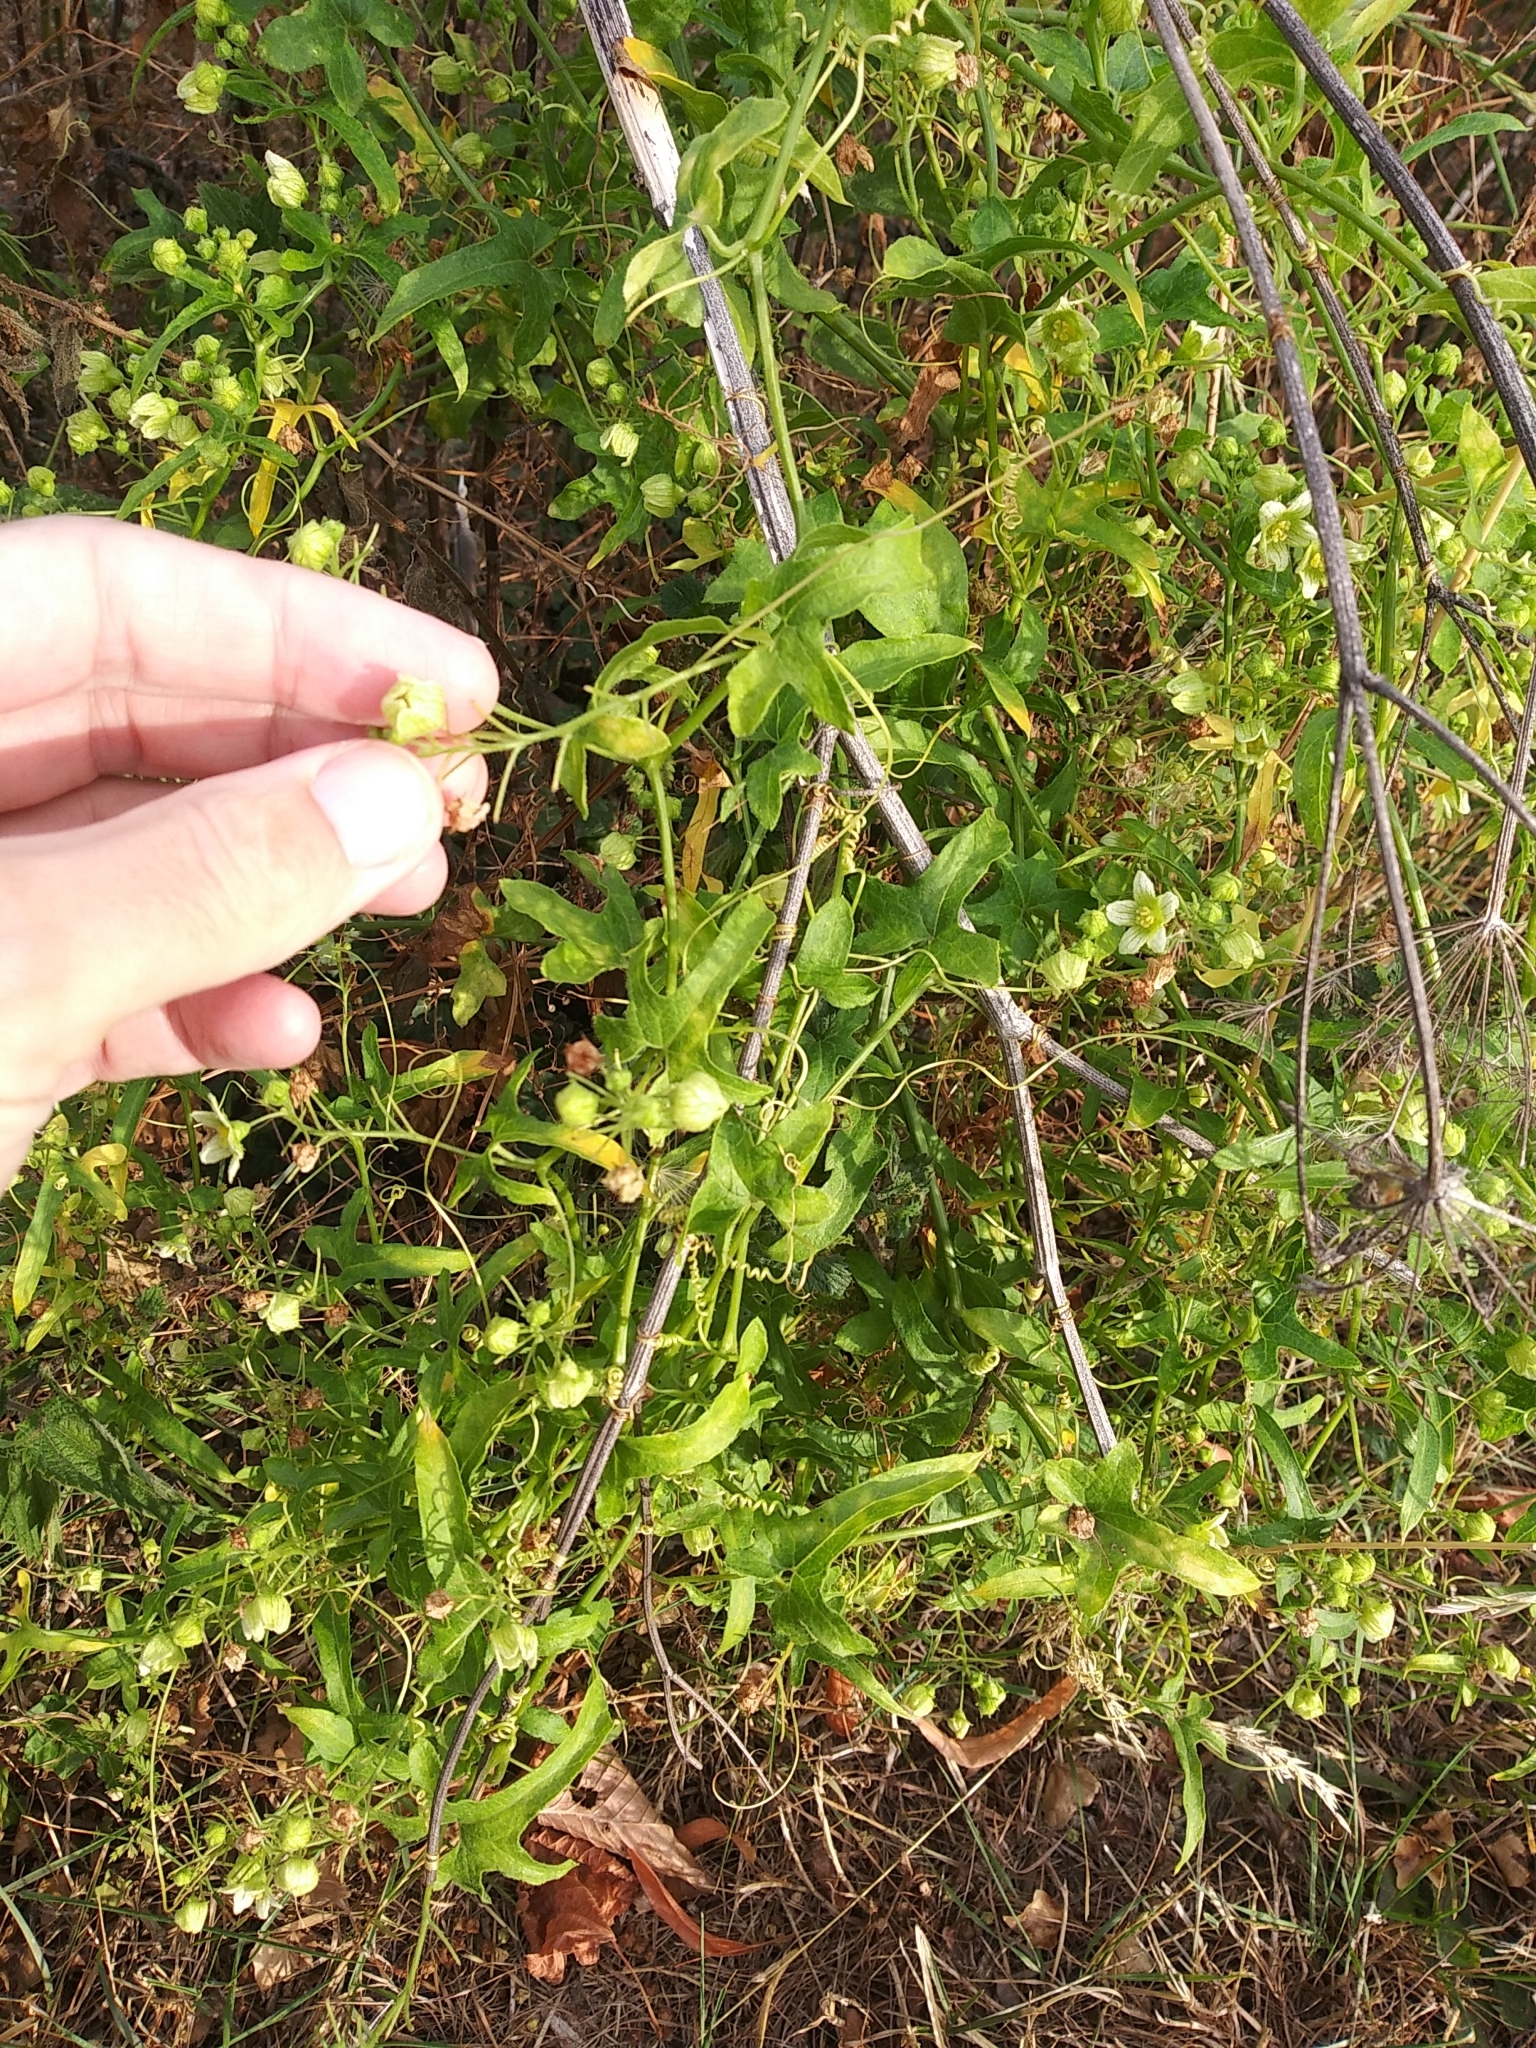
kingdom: Plantae
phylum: Tracheophyta
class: Magnoliopsida
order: Cucurbitales
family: Cucurbitaceae
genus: Bryonia
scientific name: Bryonia dioica
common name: White bryony
